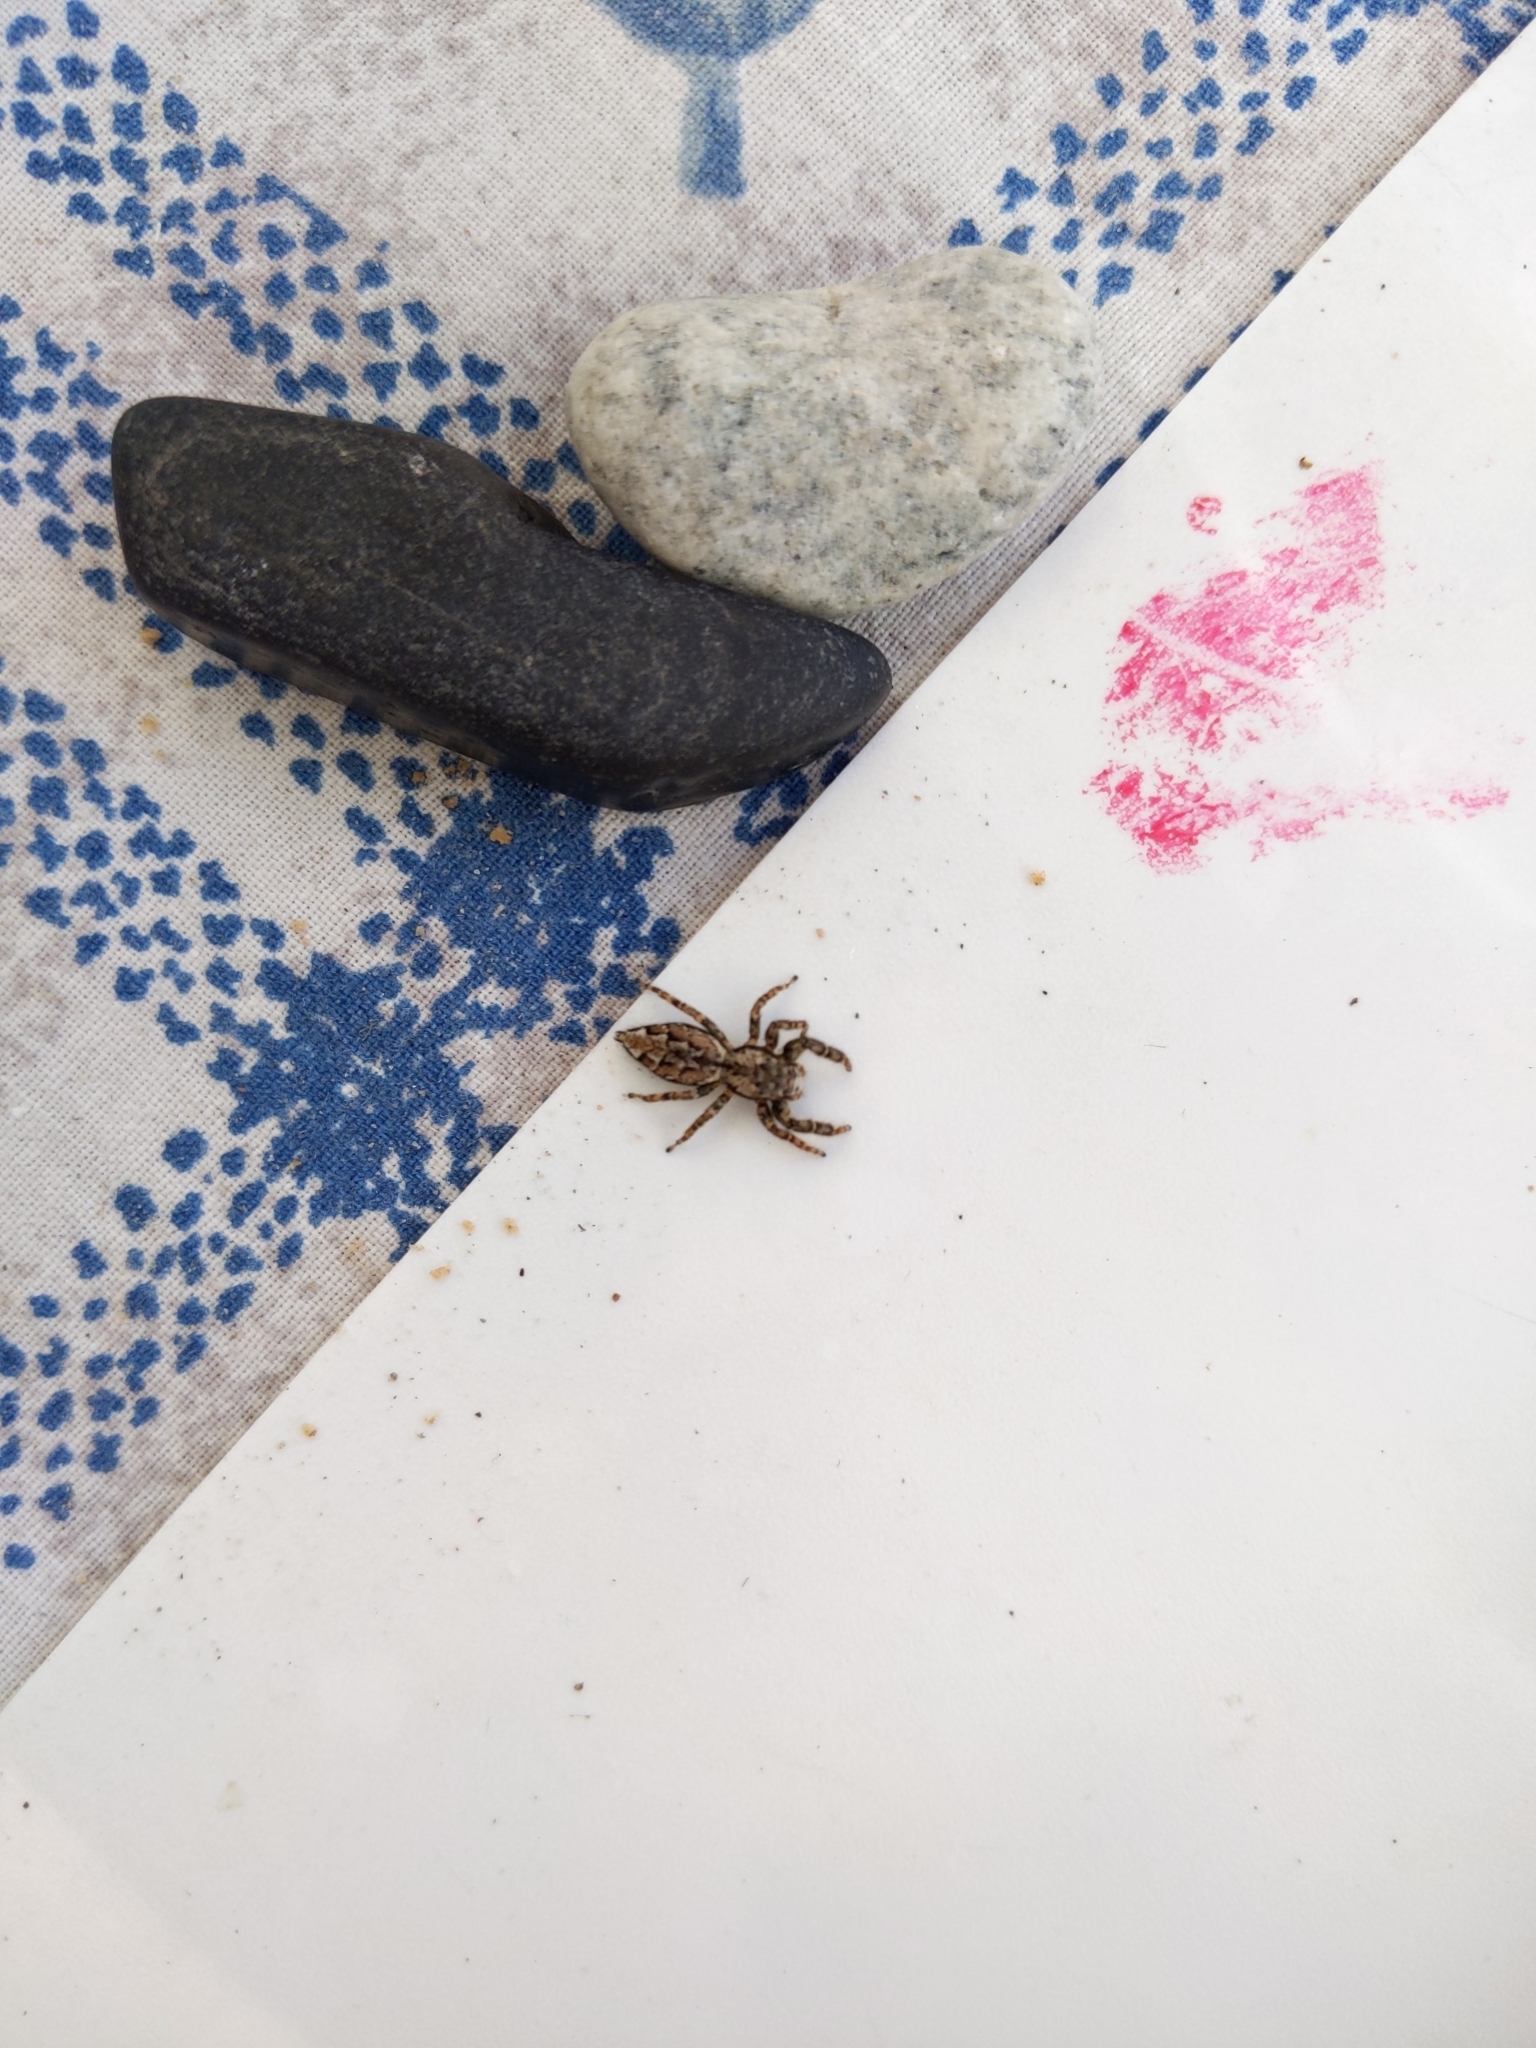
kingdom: Animalia
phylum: Arthropoda
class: Arachnida
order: Araneae
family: Salticidae
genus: Marpissa
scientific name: Marpissa muscosa
